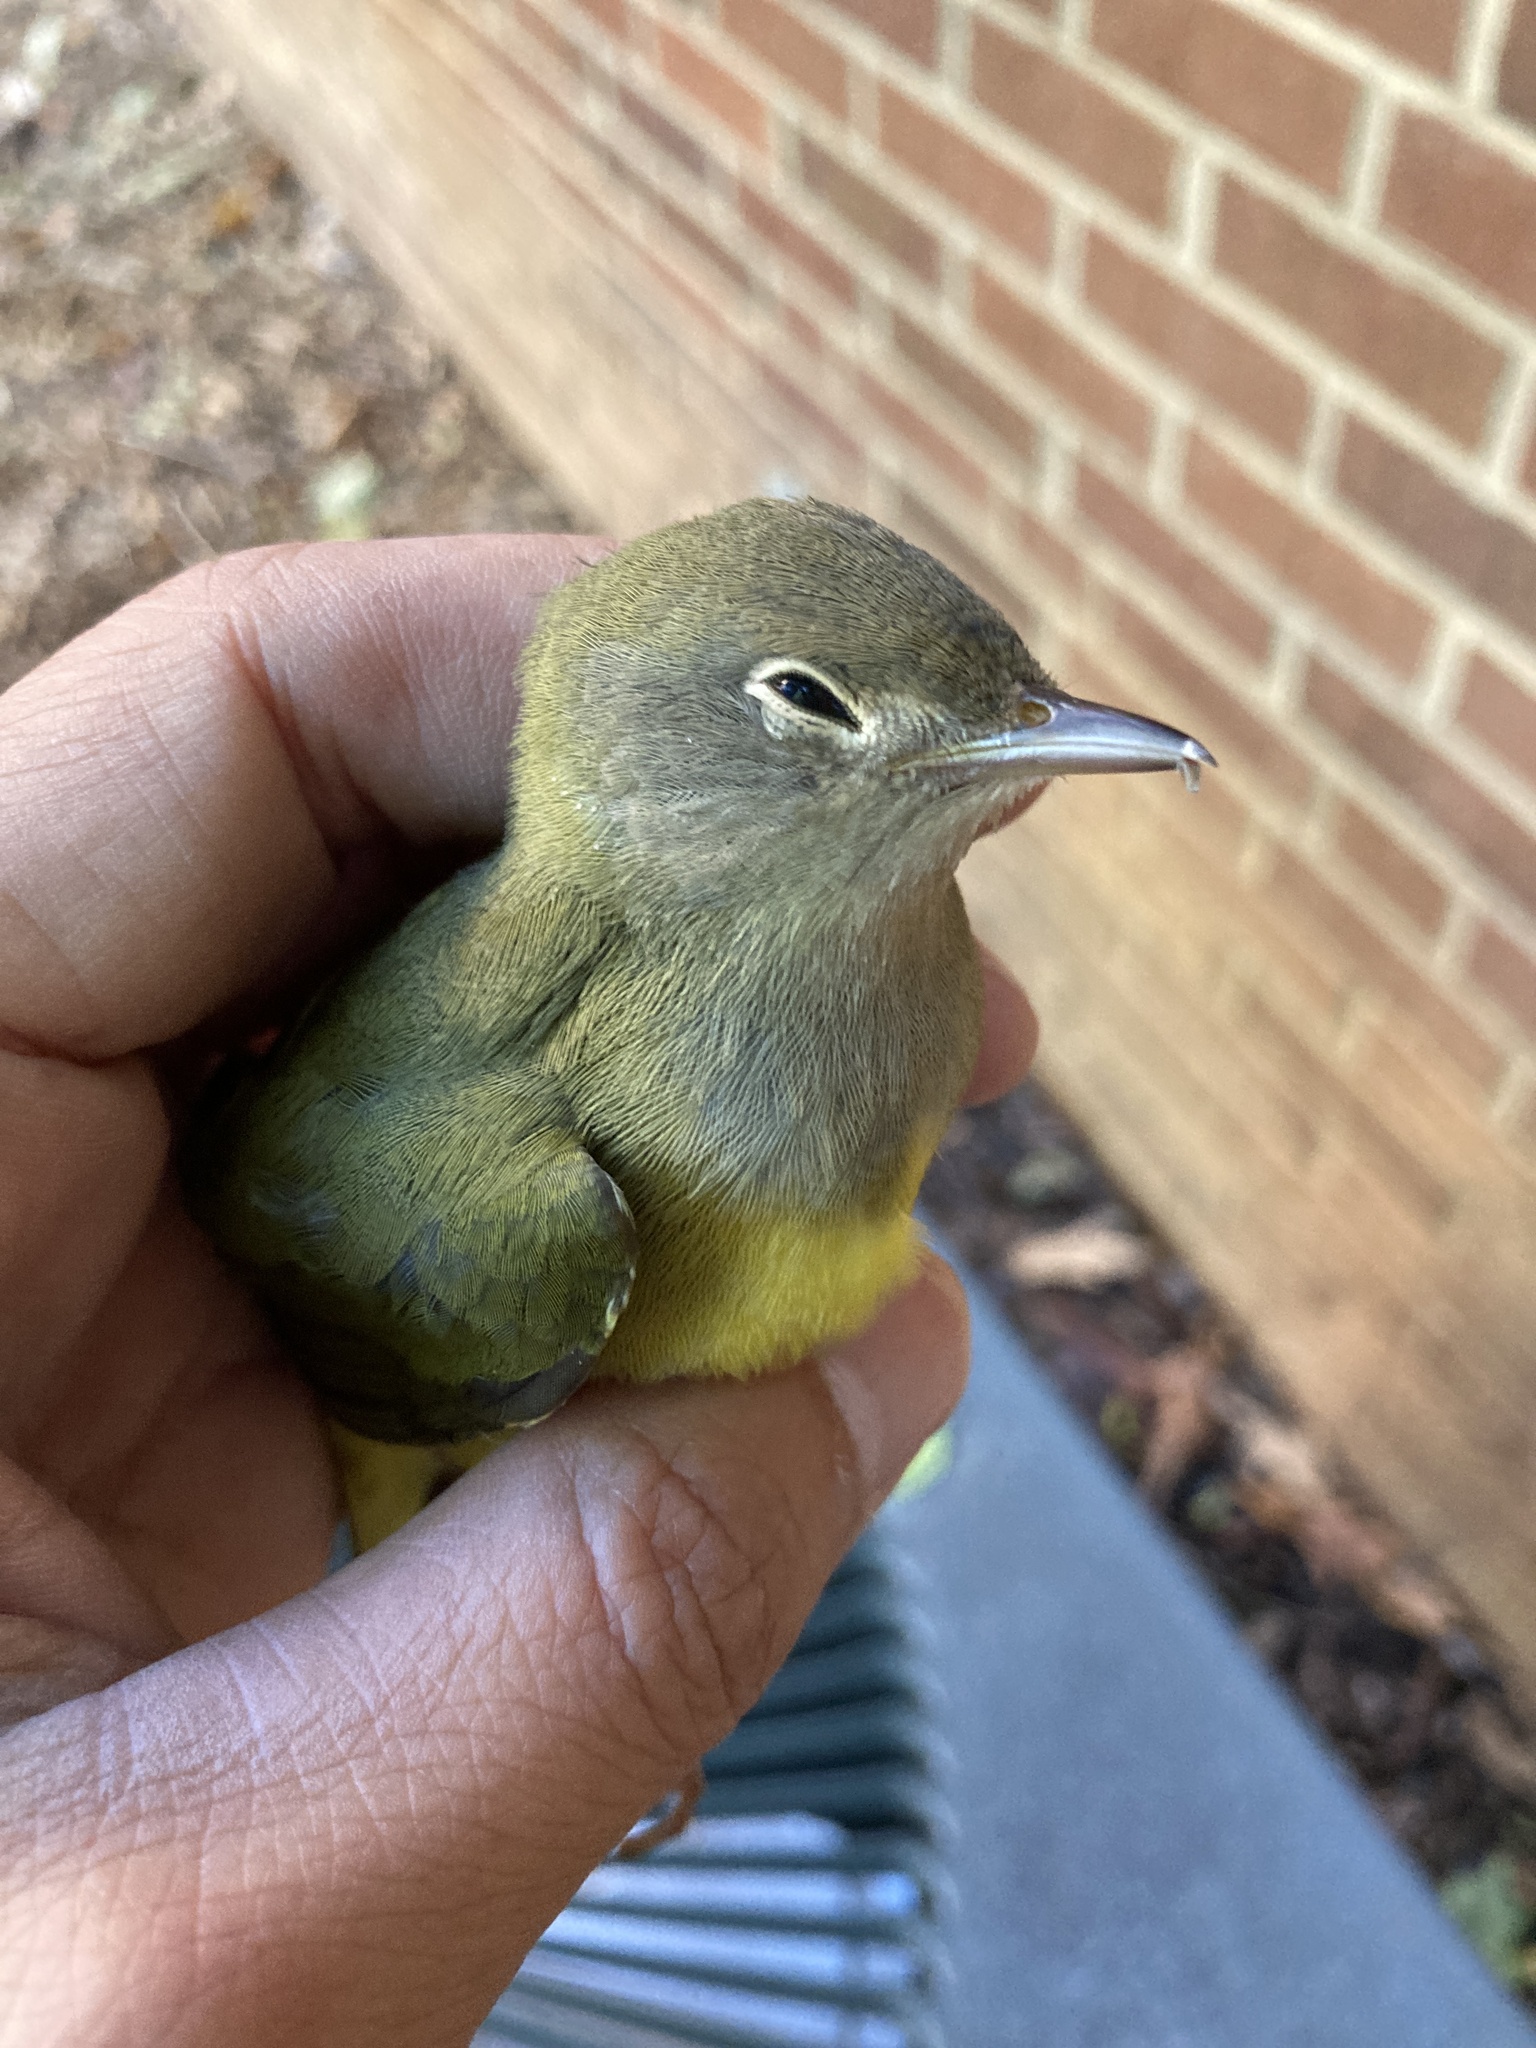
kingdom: Animalia
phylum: Chordata
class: Aves
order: Passeriformes
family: Parulidae
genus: Oporornis
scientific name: Oporornis agilis
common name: Connecticut warbler
